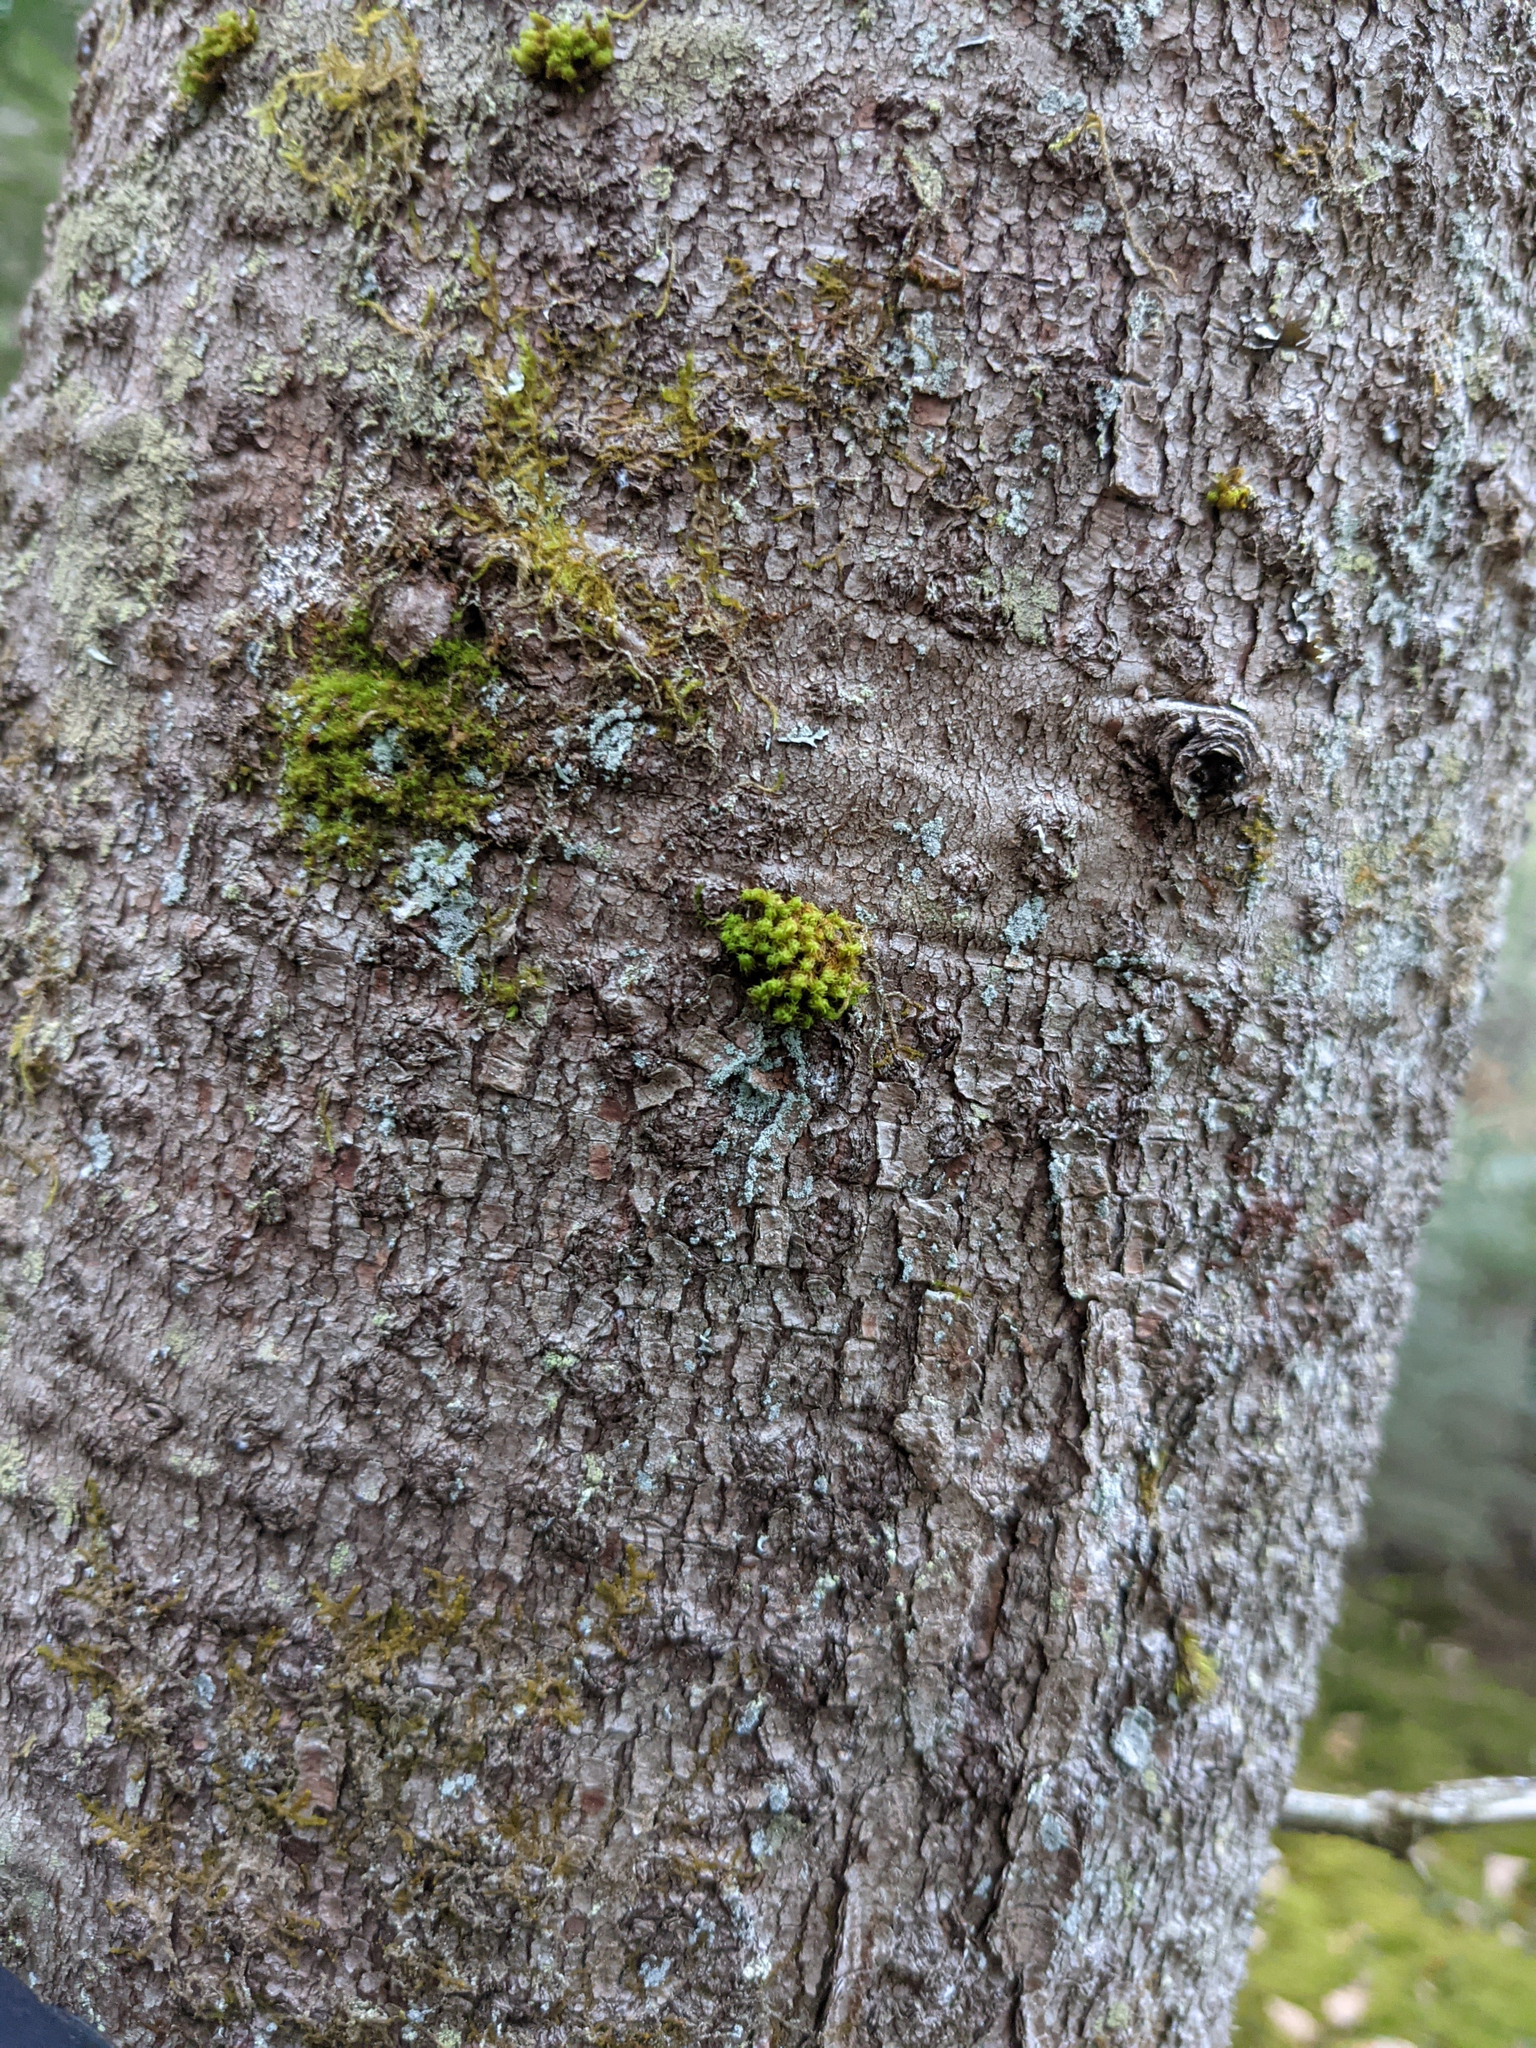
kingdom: Plantae
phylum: Bryophyta
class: Bryopsida
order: Orthotrichales
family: Orthotrichaceae
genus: Ulota
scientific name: Ulota crispa
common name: Crisped pincushion moss
